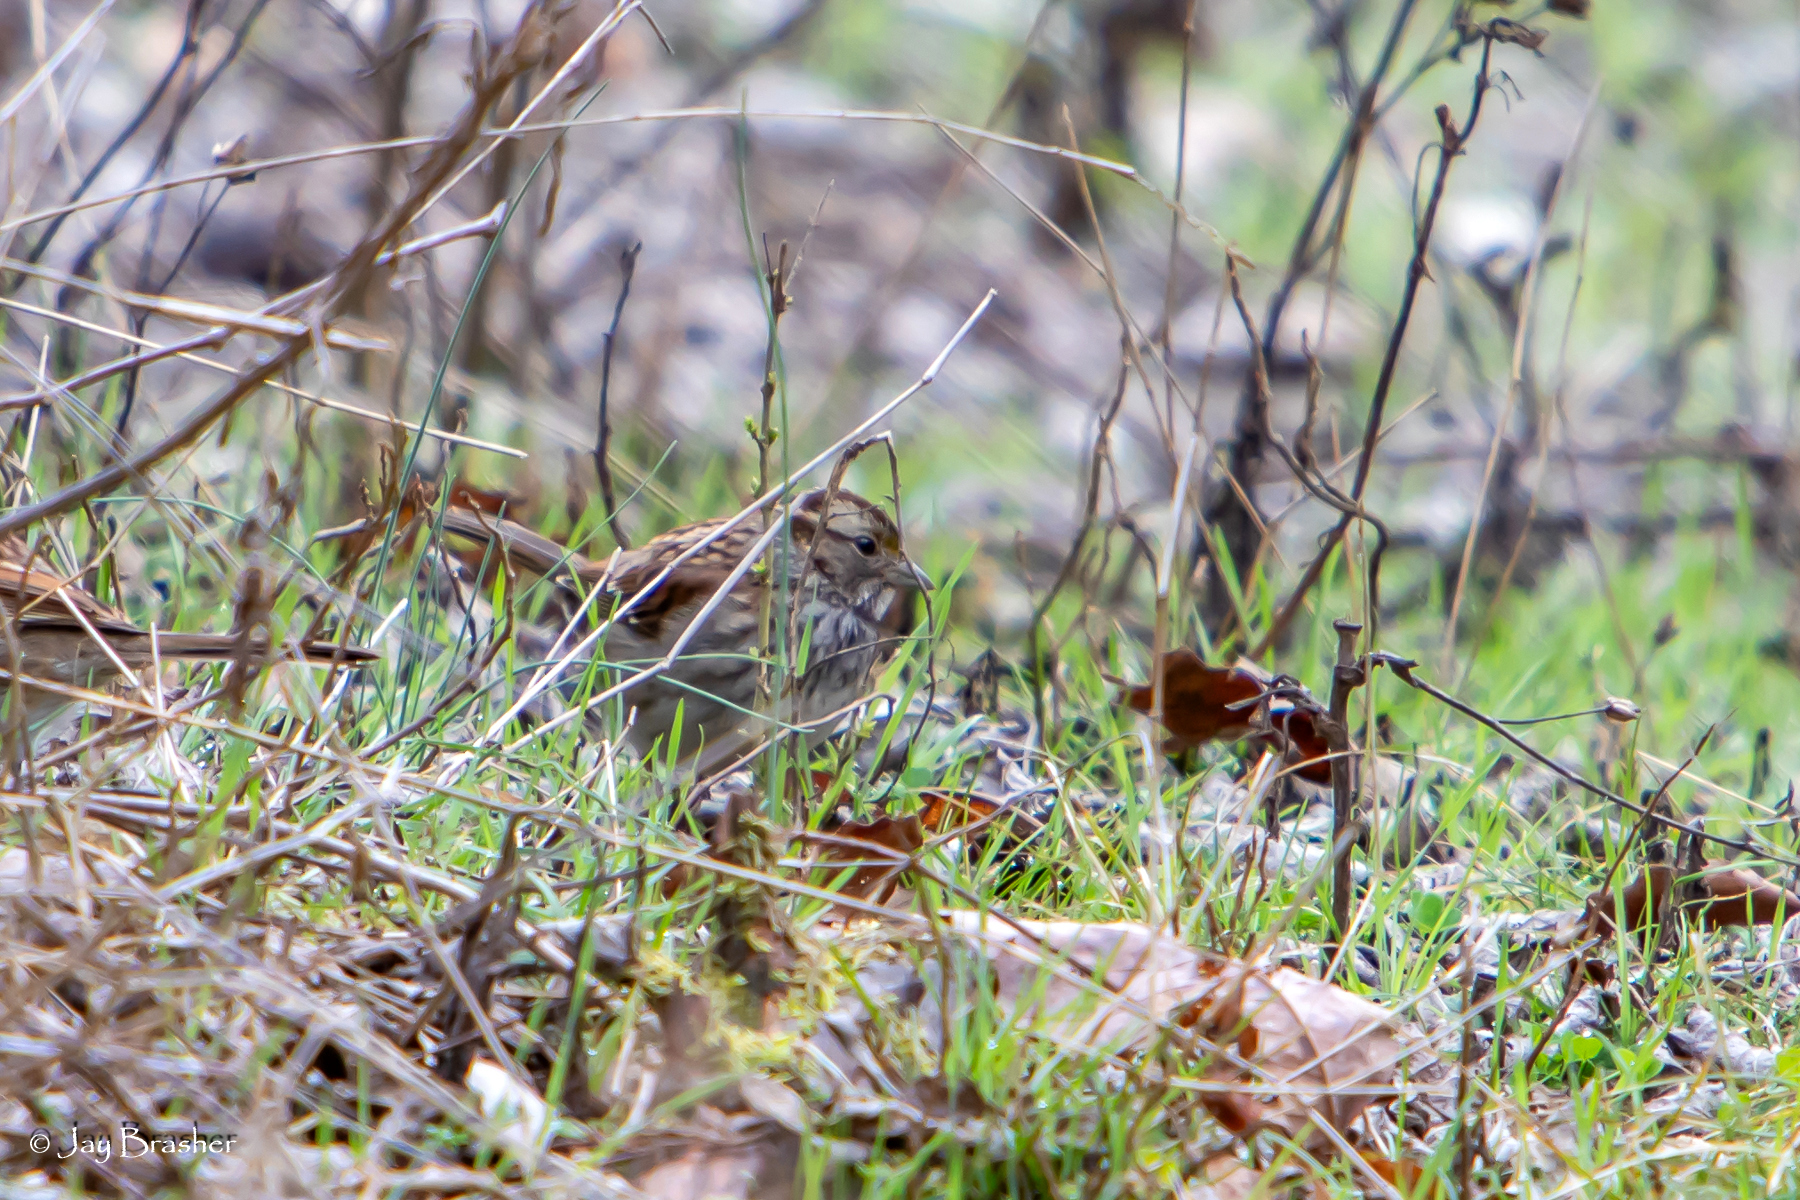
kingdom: Animalia
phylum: Chordata
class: Aves
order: Passeriformes
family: Passerellidae
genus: Zonotrichia
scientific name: Zonotrichia albicollis
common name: White-throated sparrow
